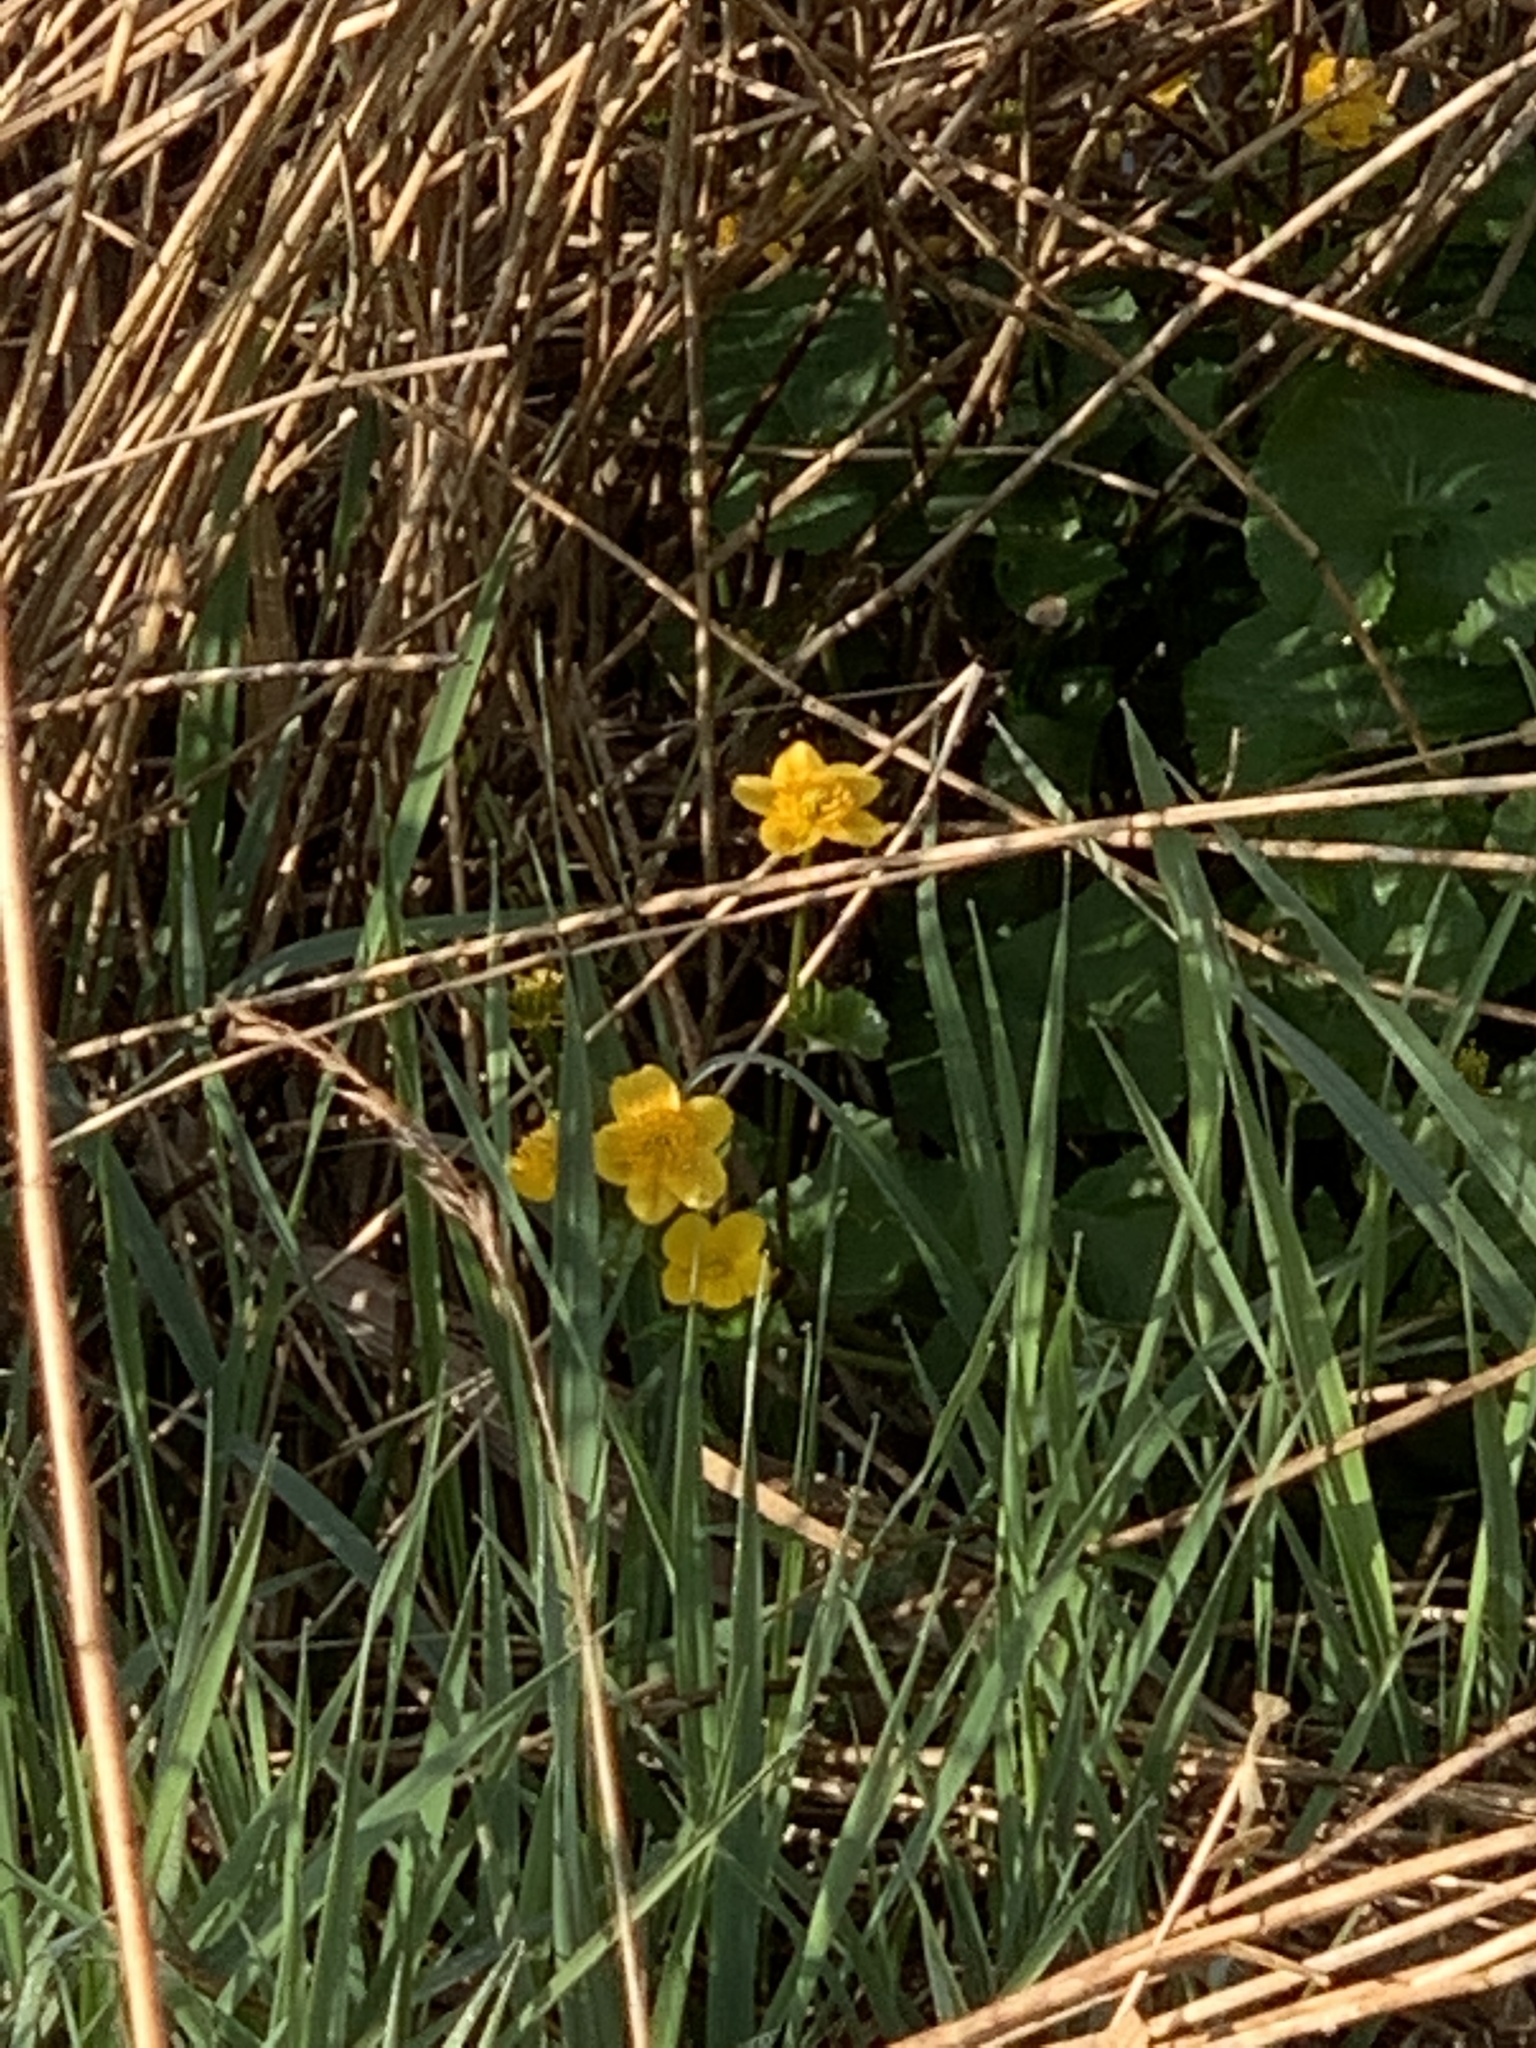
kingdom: Plantae
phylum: Tracheophyta
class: Magnoliopsida
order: Ranunculales
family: Ranunculaceae
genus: Caltha
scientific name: Caltha palustris
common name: Marsh marigold
